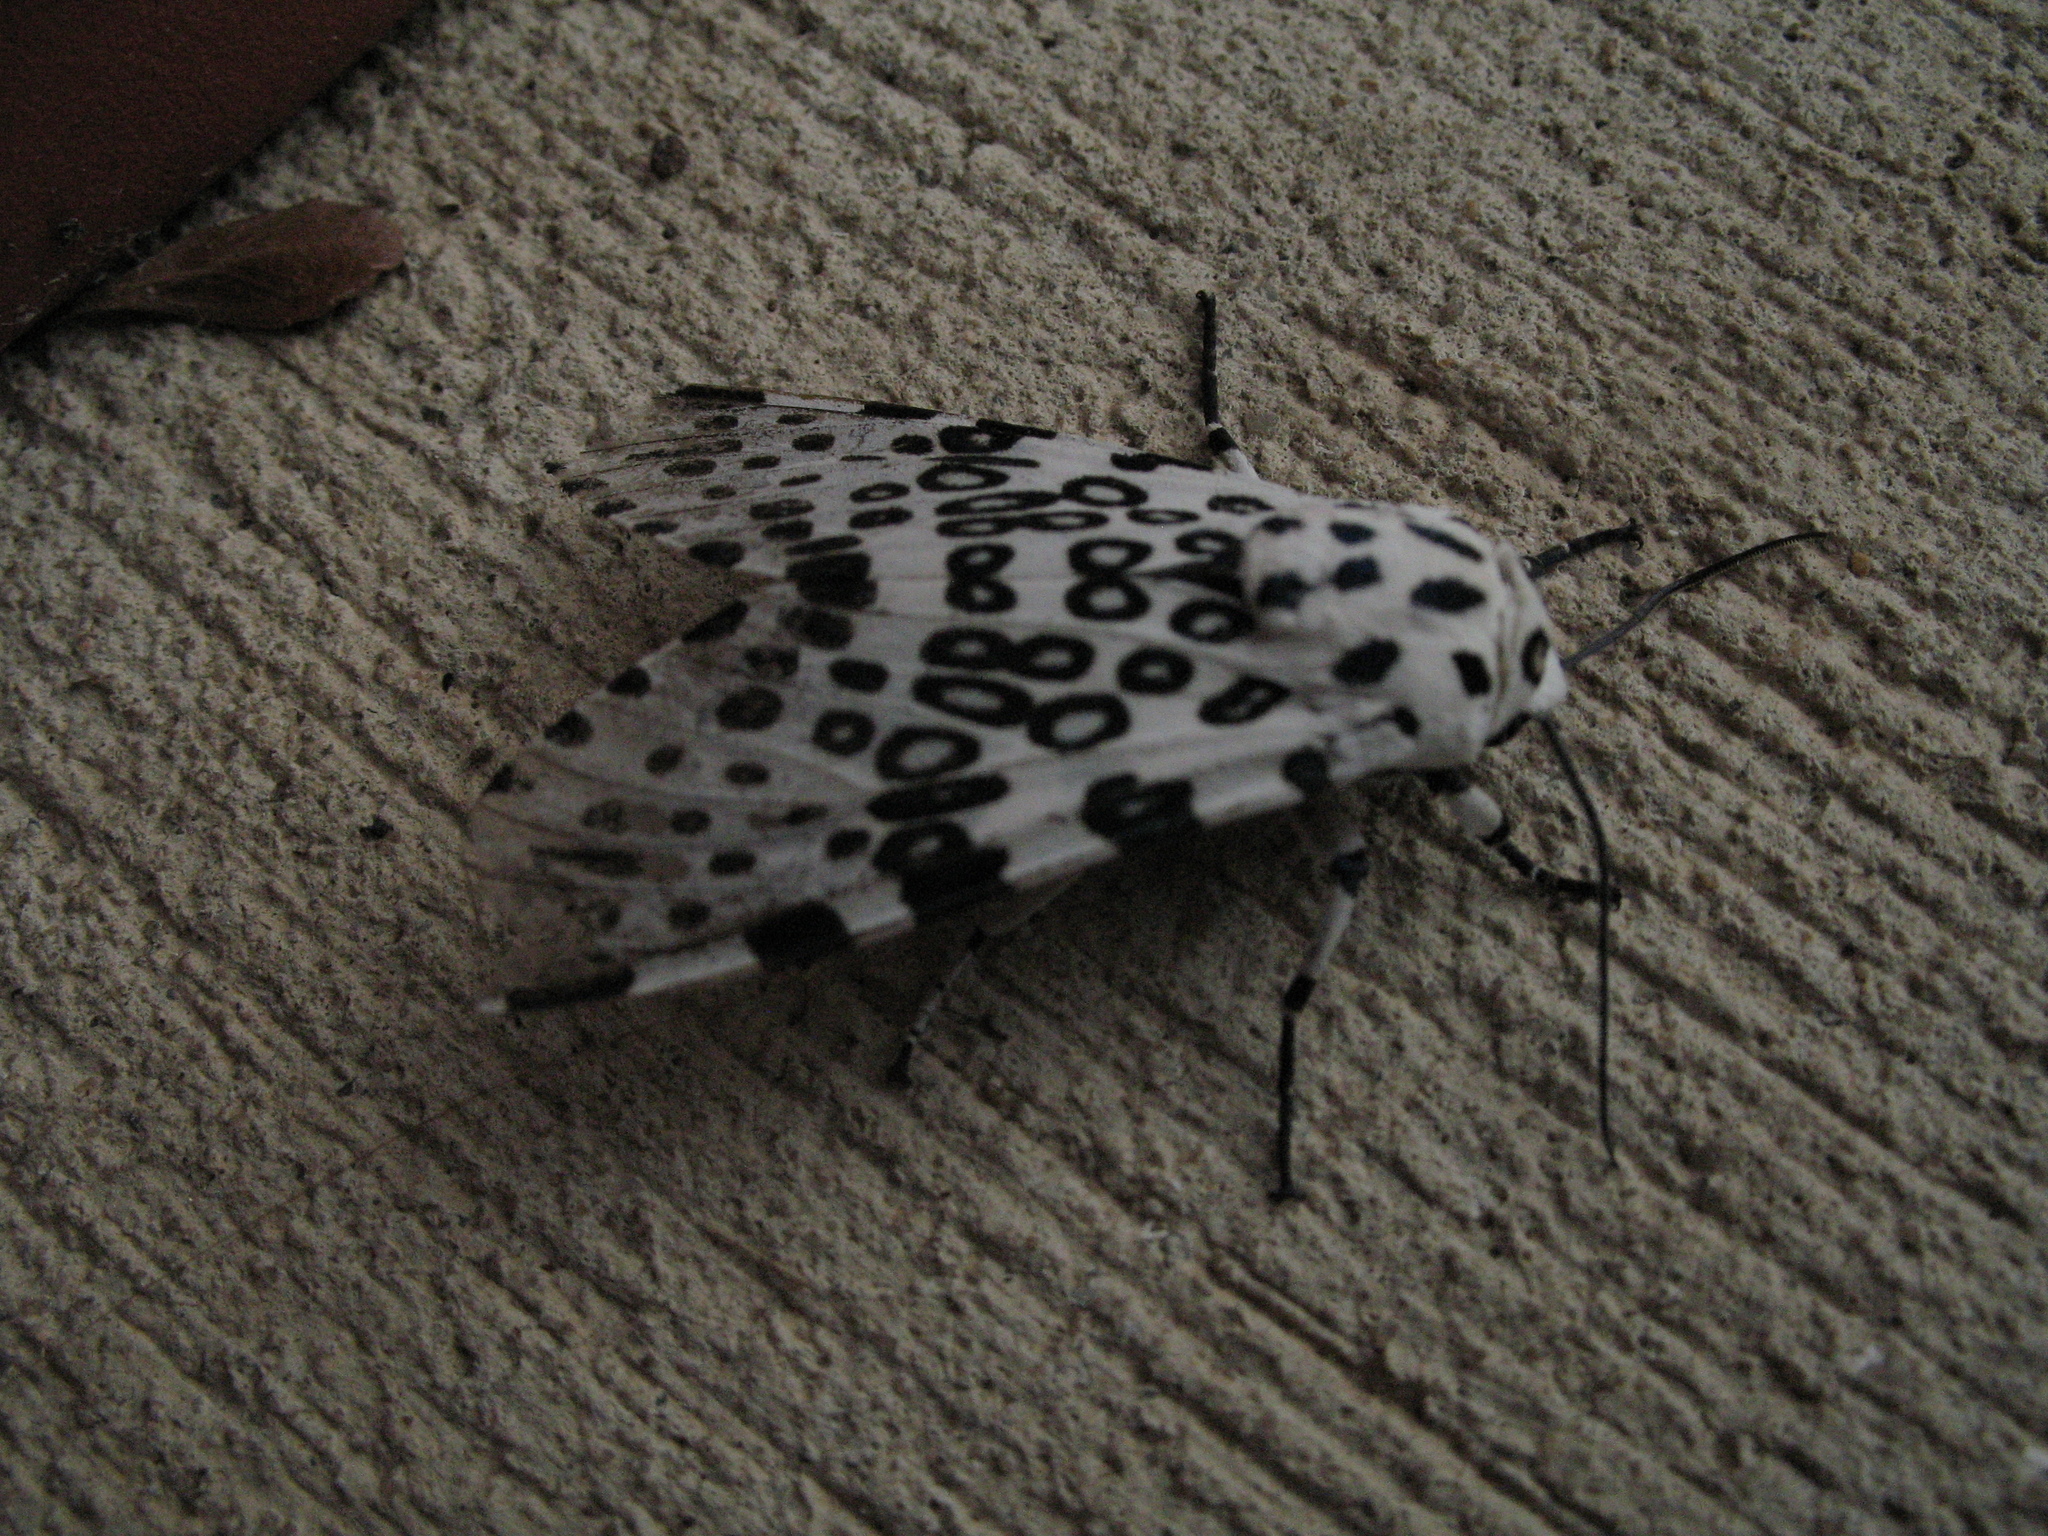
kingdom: Animalia
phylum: Arthropoda
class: Insecta
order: Lepidoptera
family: Erebidae
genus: Hypercompe
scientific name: Hypercompe scribonia
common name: Giant leopard moth
